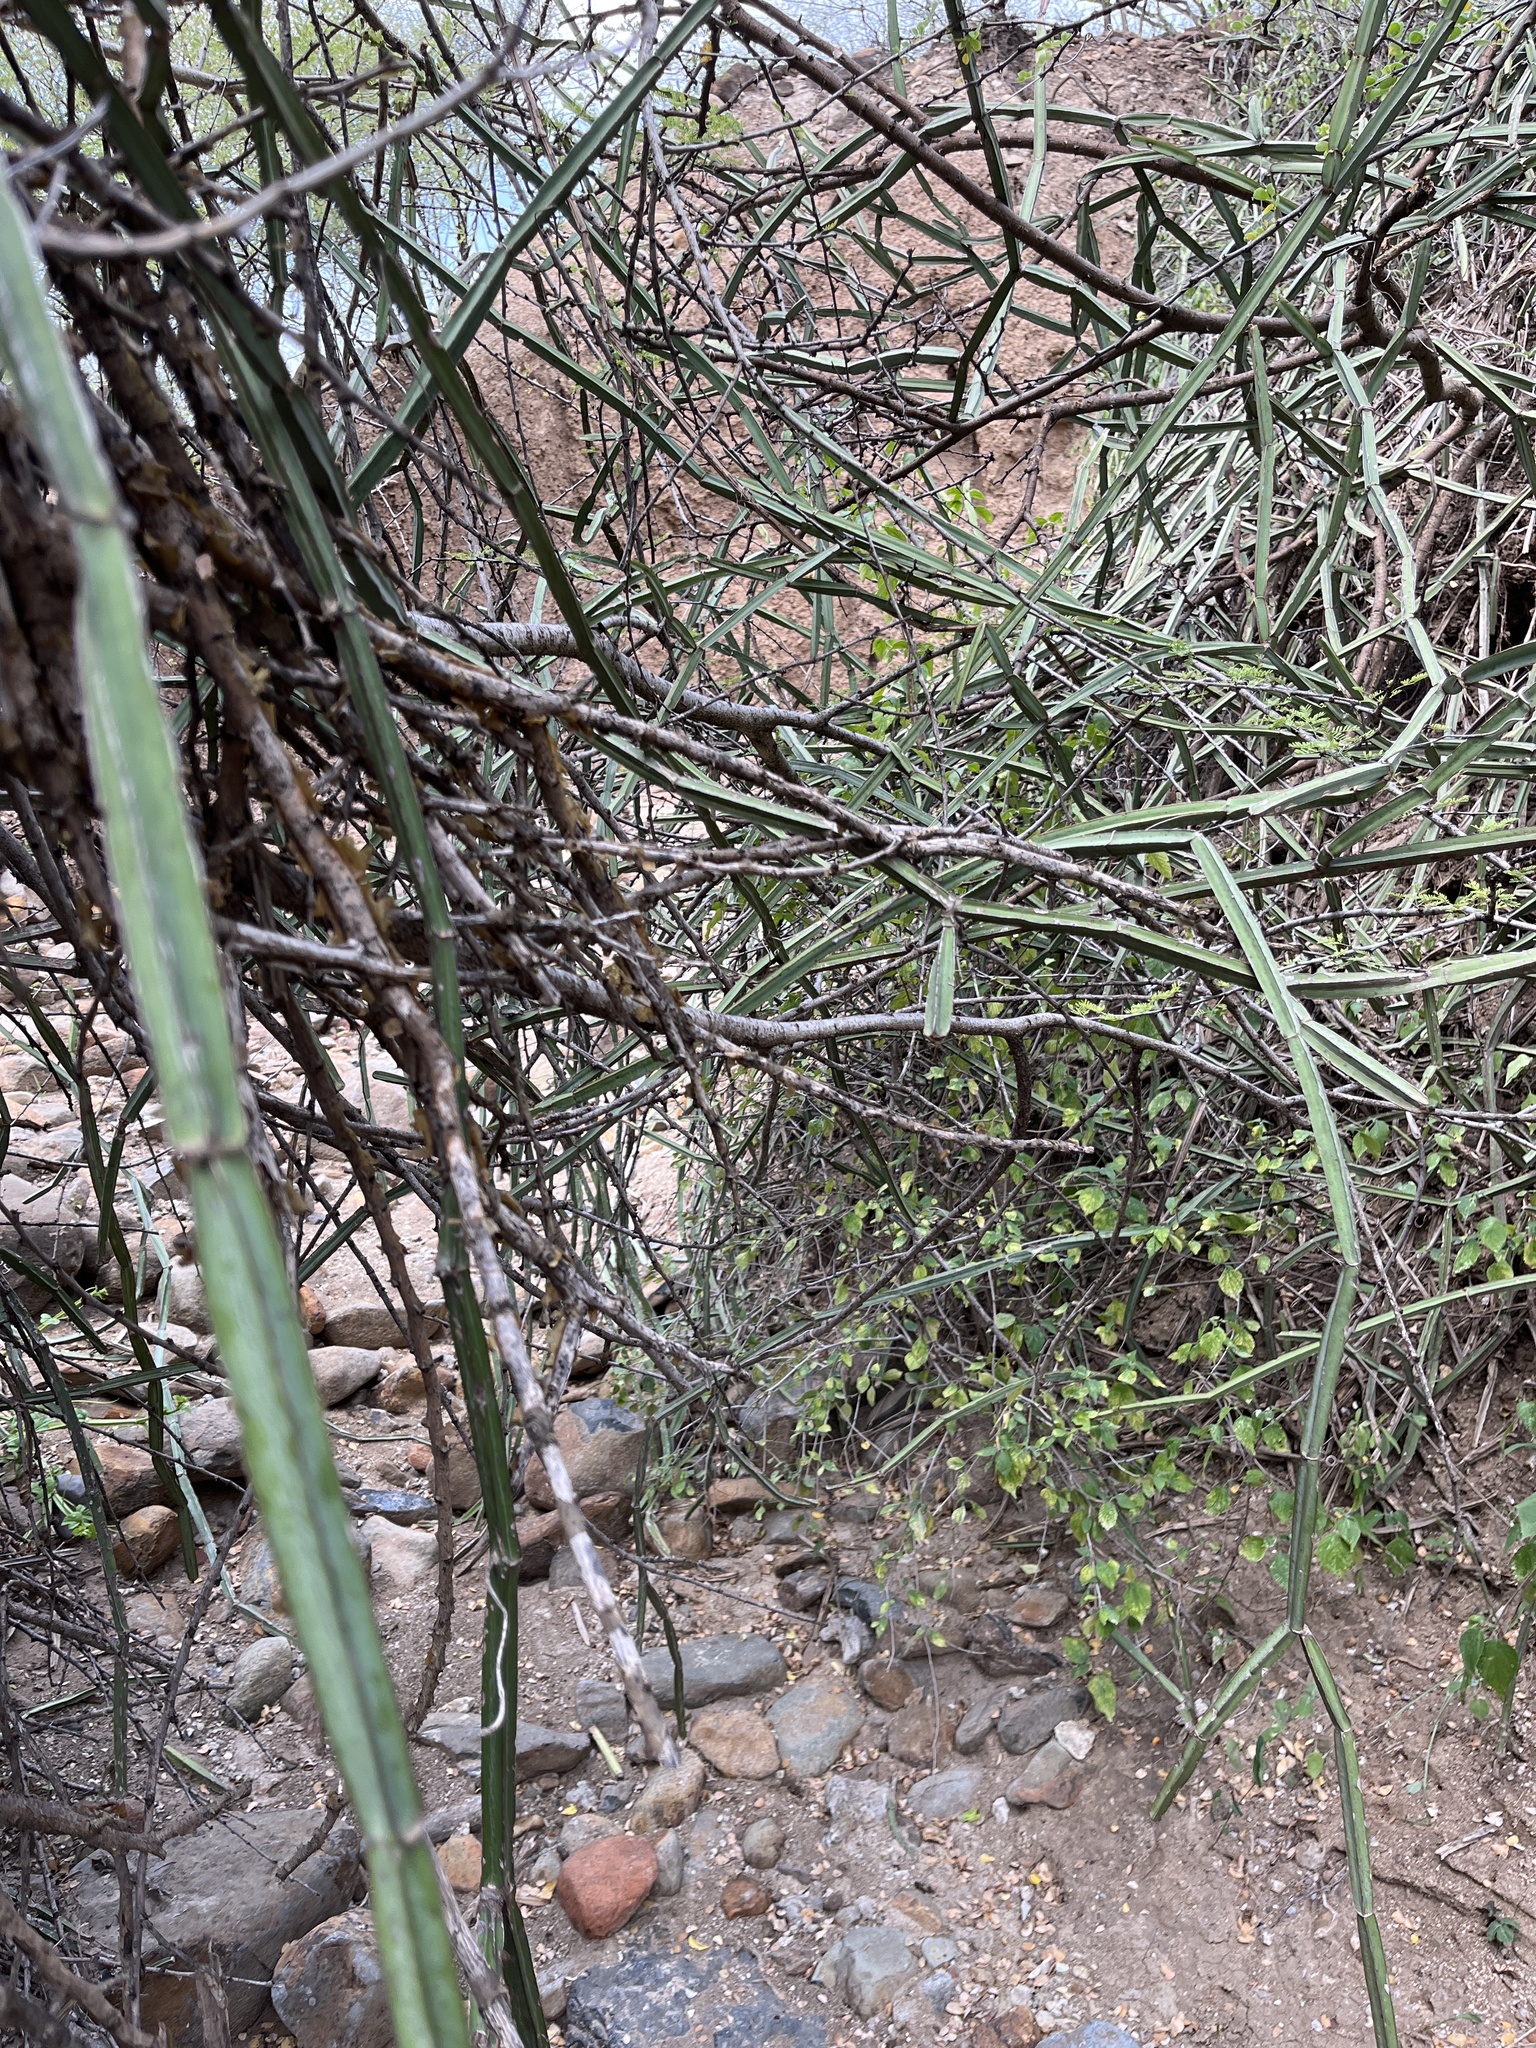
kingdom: Plantae
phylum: Tracheophyta
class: Magnoliopsida
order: Vitales
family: Vitaceae
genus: Cissus
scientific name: Cissus quadrangularis
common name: Veldt-grape
